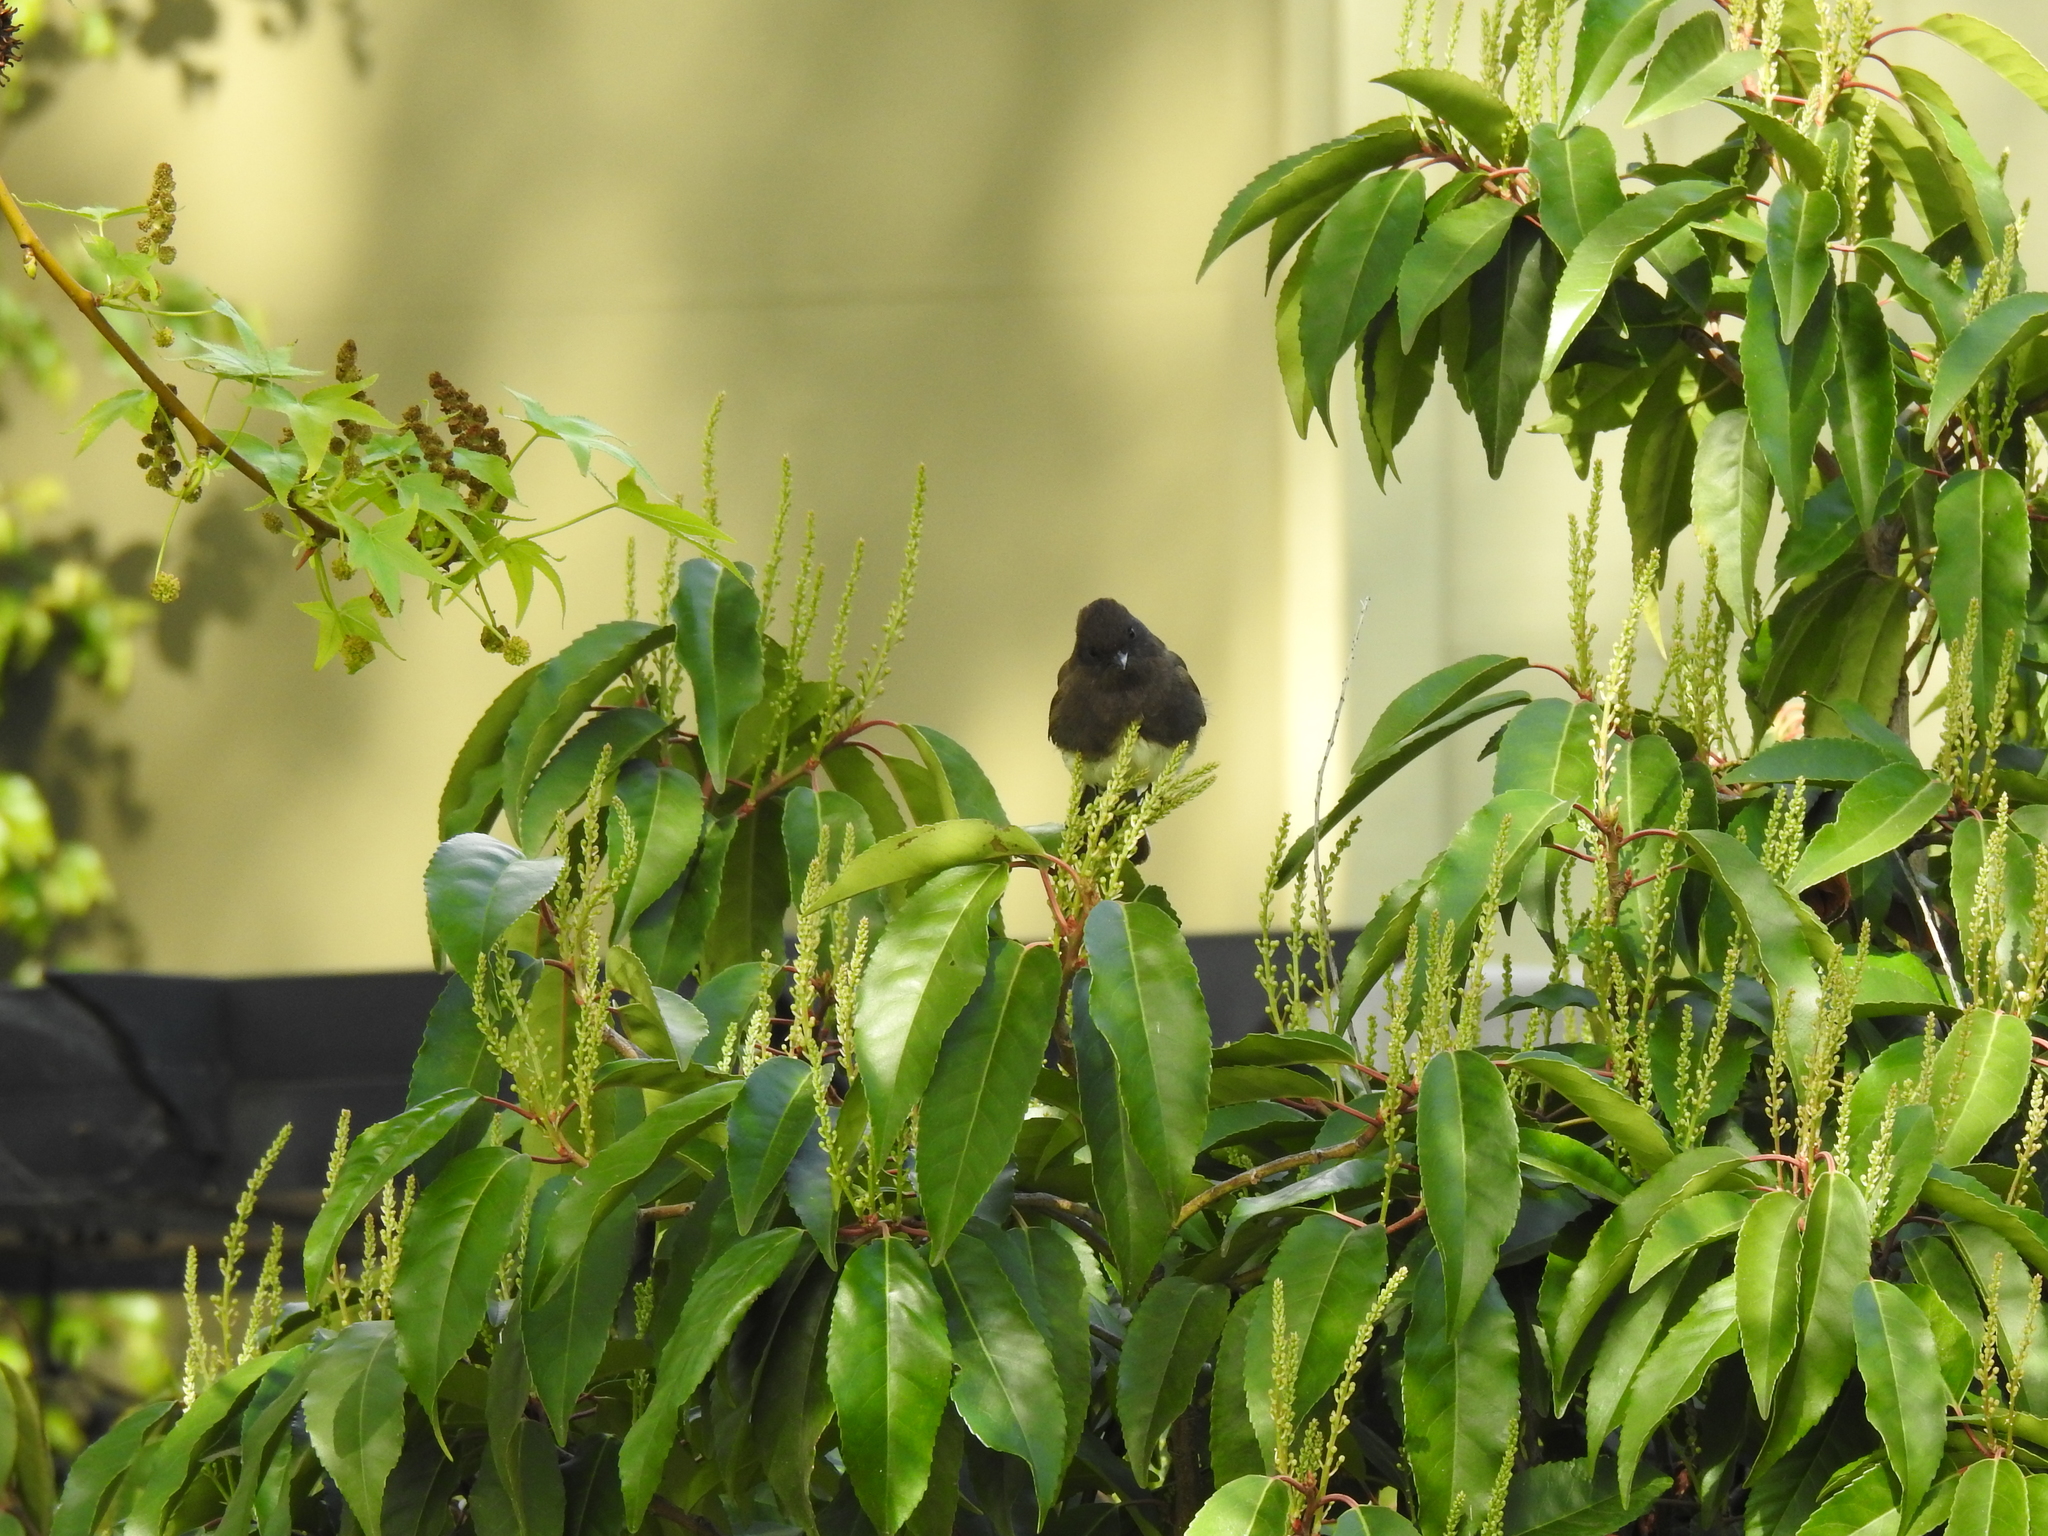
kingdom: Animalia
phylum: Chordata
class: Aves
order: Passeriformes
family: Tyrannidae
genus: Sayornis
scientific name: Sayornis nigricans
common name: Black phoebe
